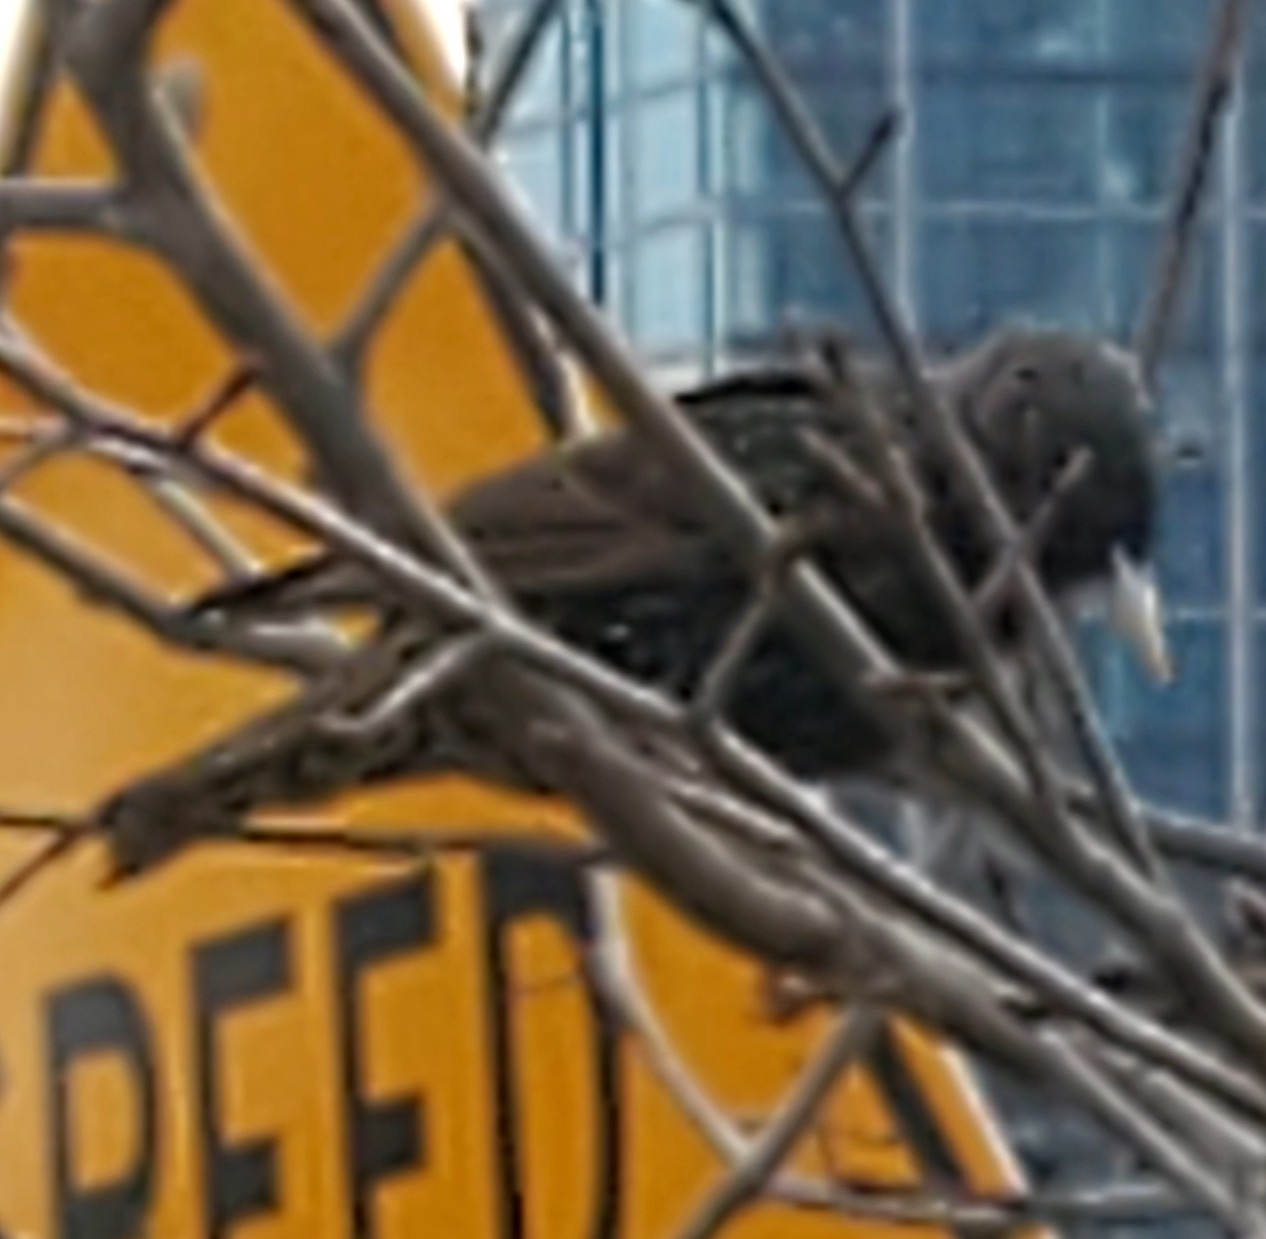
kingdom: Animalia
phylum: Chordata
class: Aves
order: Passeriformes
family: Sturnidae
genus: Sturnus
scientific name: Sturnus vulgaris
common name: Common starling
